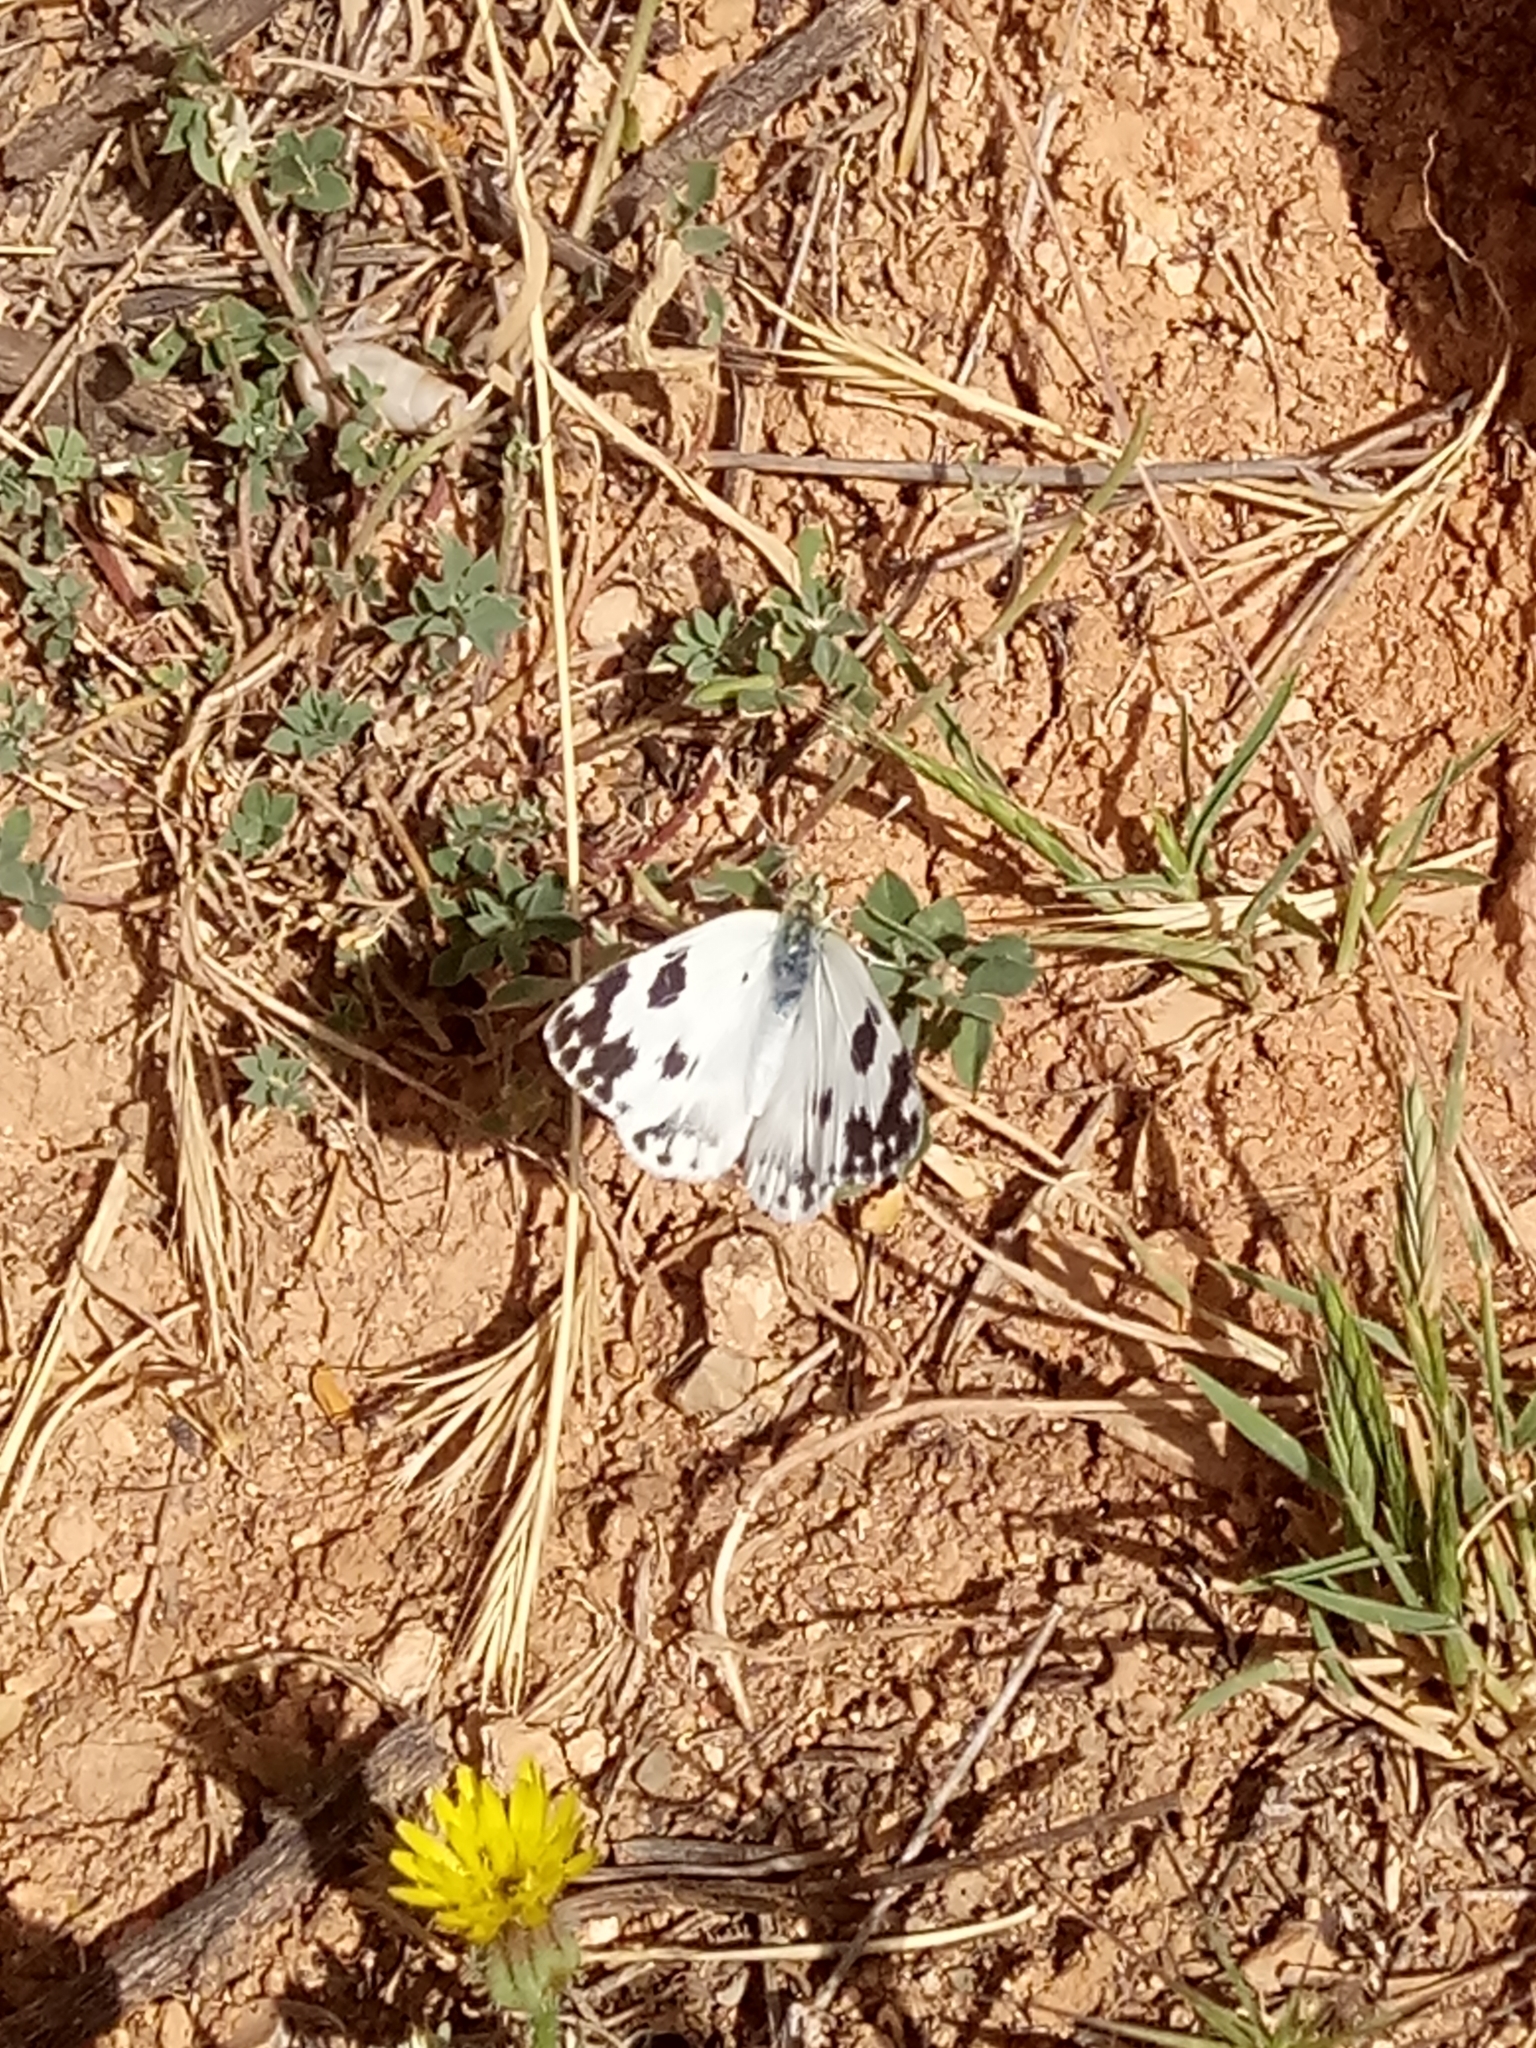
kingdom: Animalia
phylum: Arthropoda
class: Insecta
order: Lepidoptera
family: Pieridae
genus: Pontia
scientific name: Pontia daplidice
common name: Bath white
